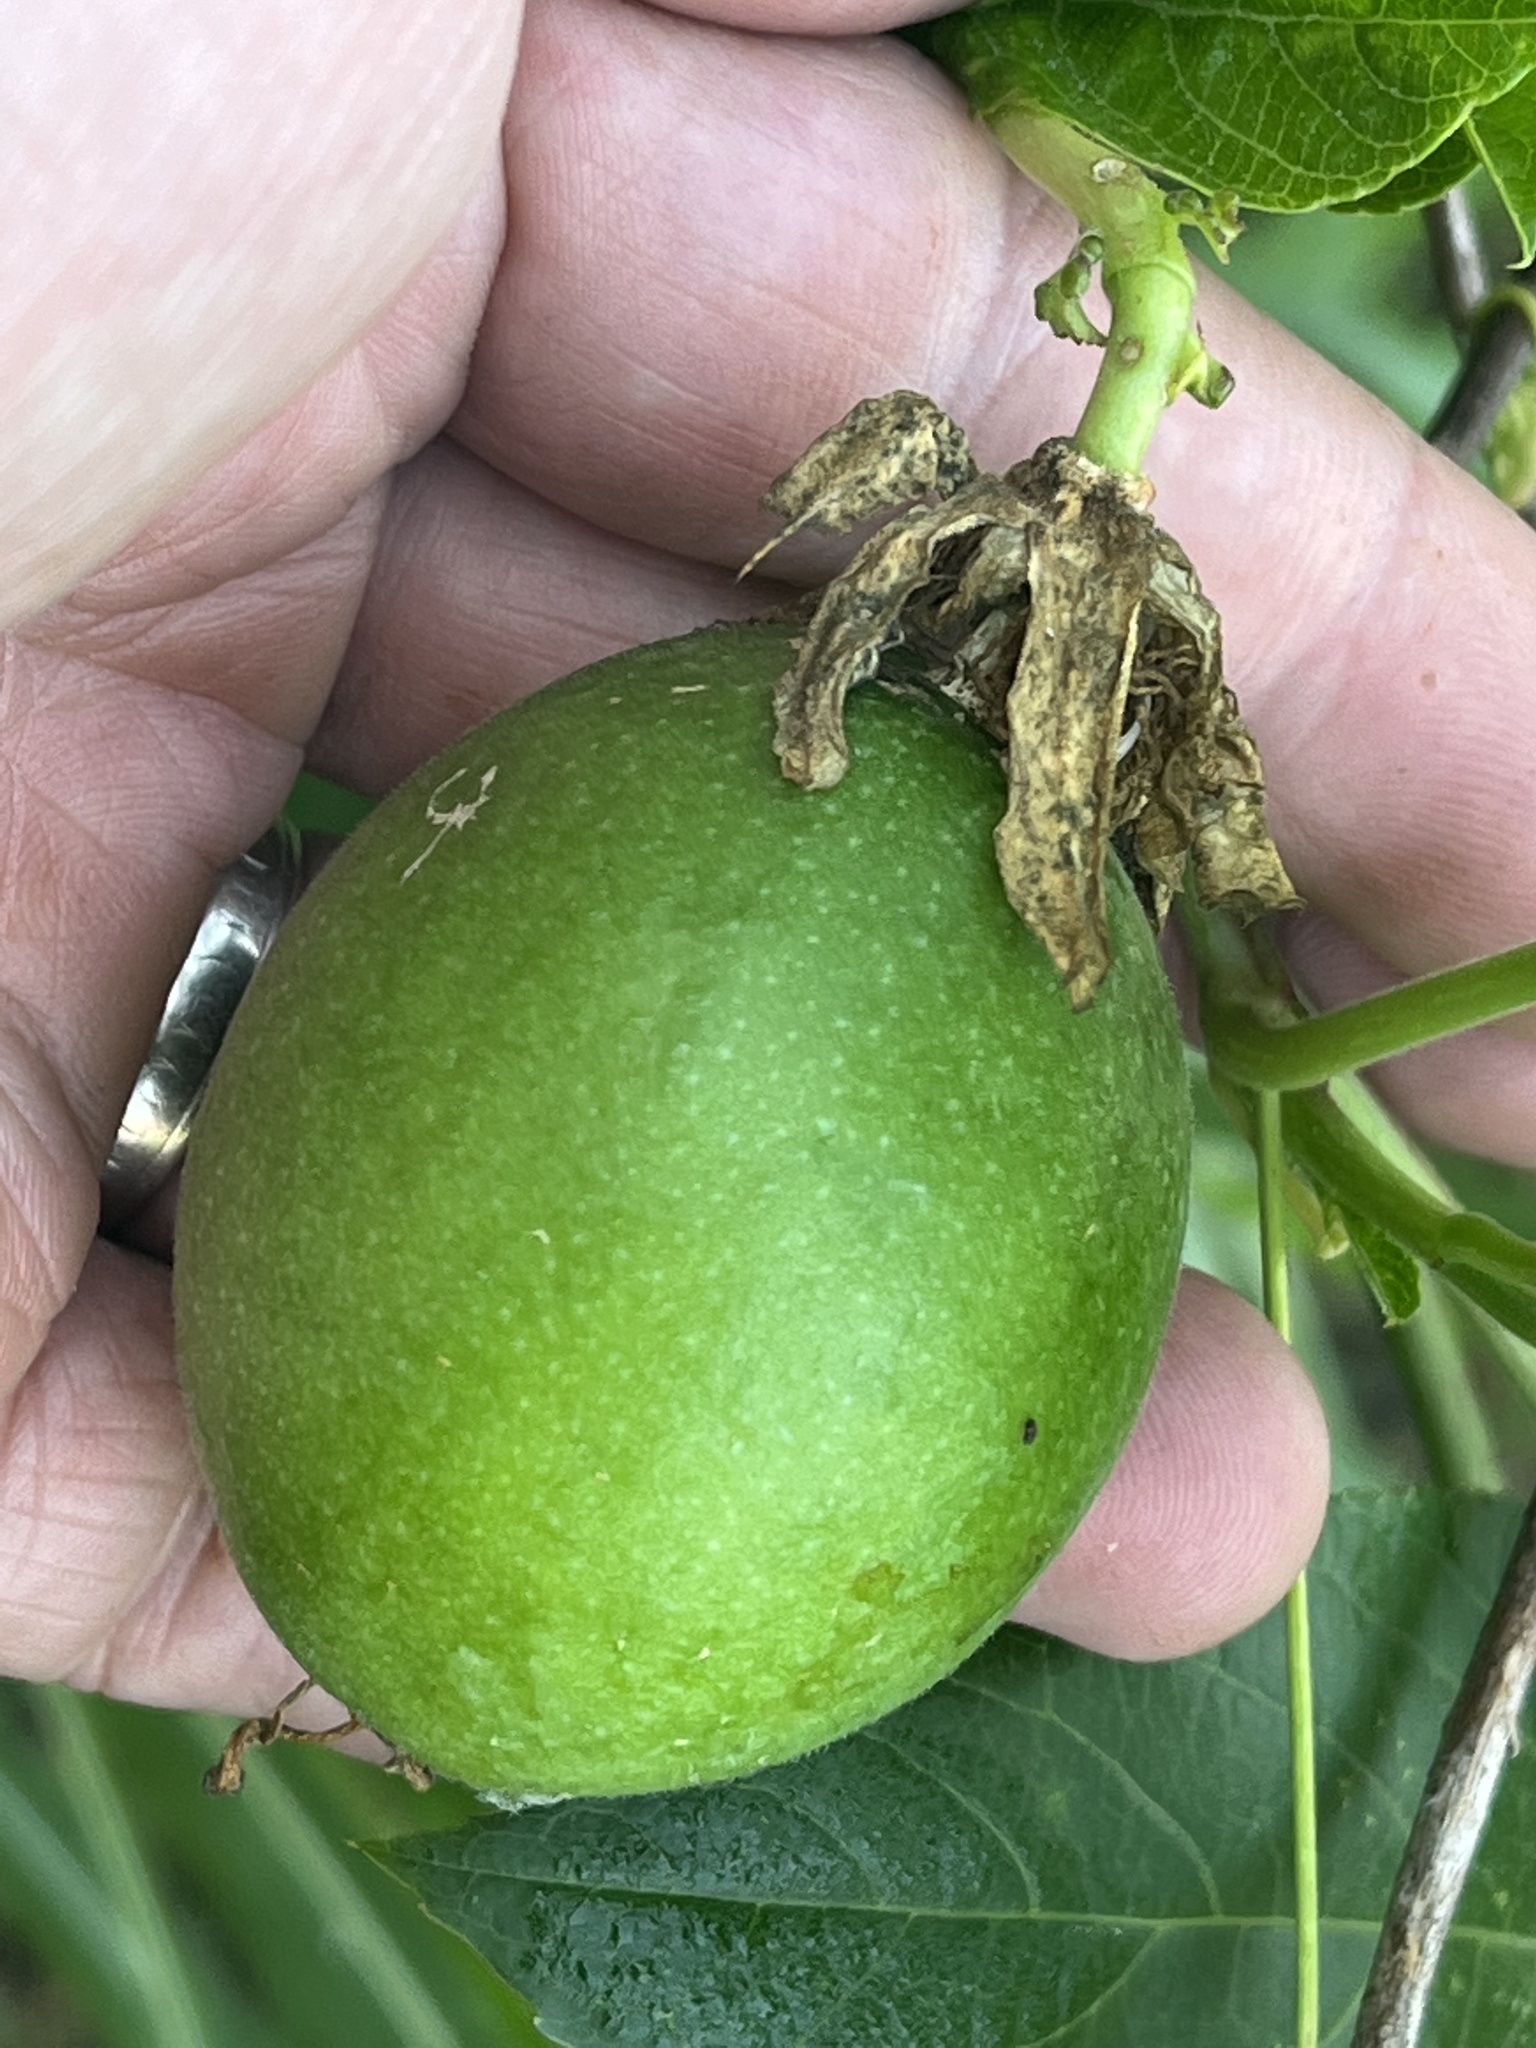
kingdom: Plantae
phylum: Tracheophyta
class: Magnoliopsida
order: Malpighiales
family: Passifloraceae
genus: Passiflora
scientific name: Passiflora incarnata
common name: Apricot-vine
